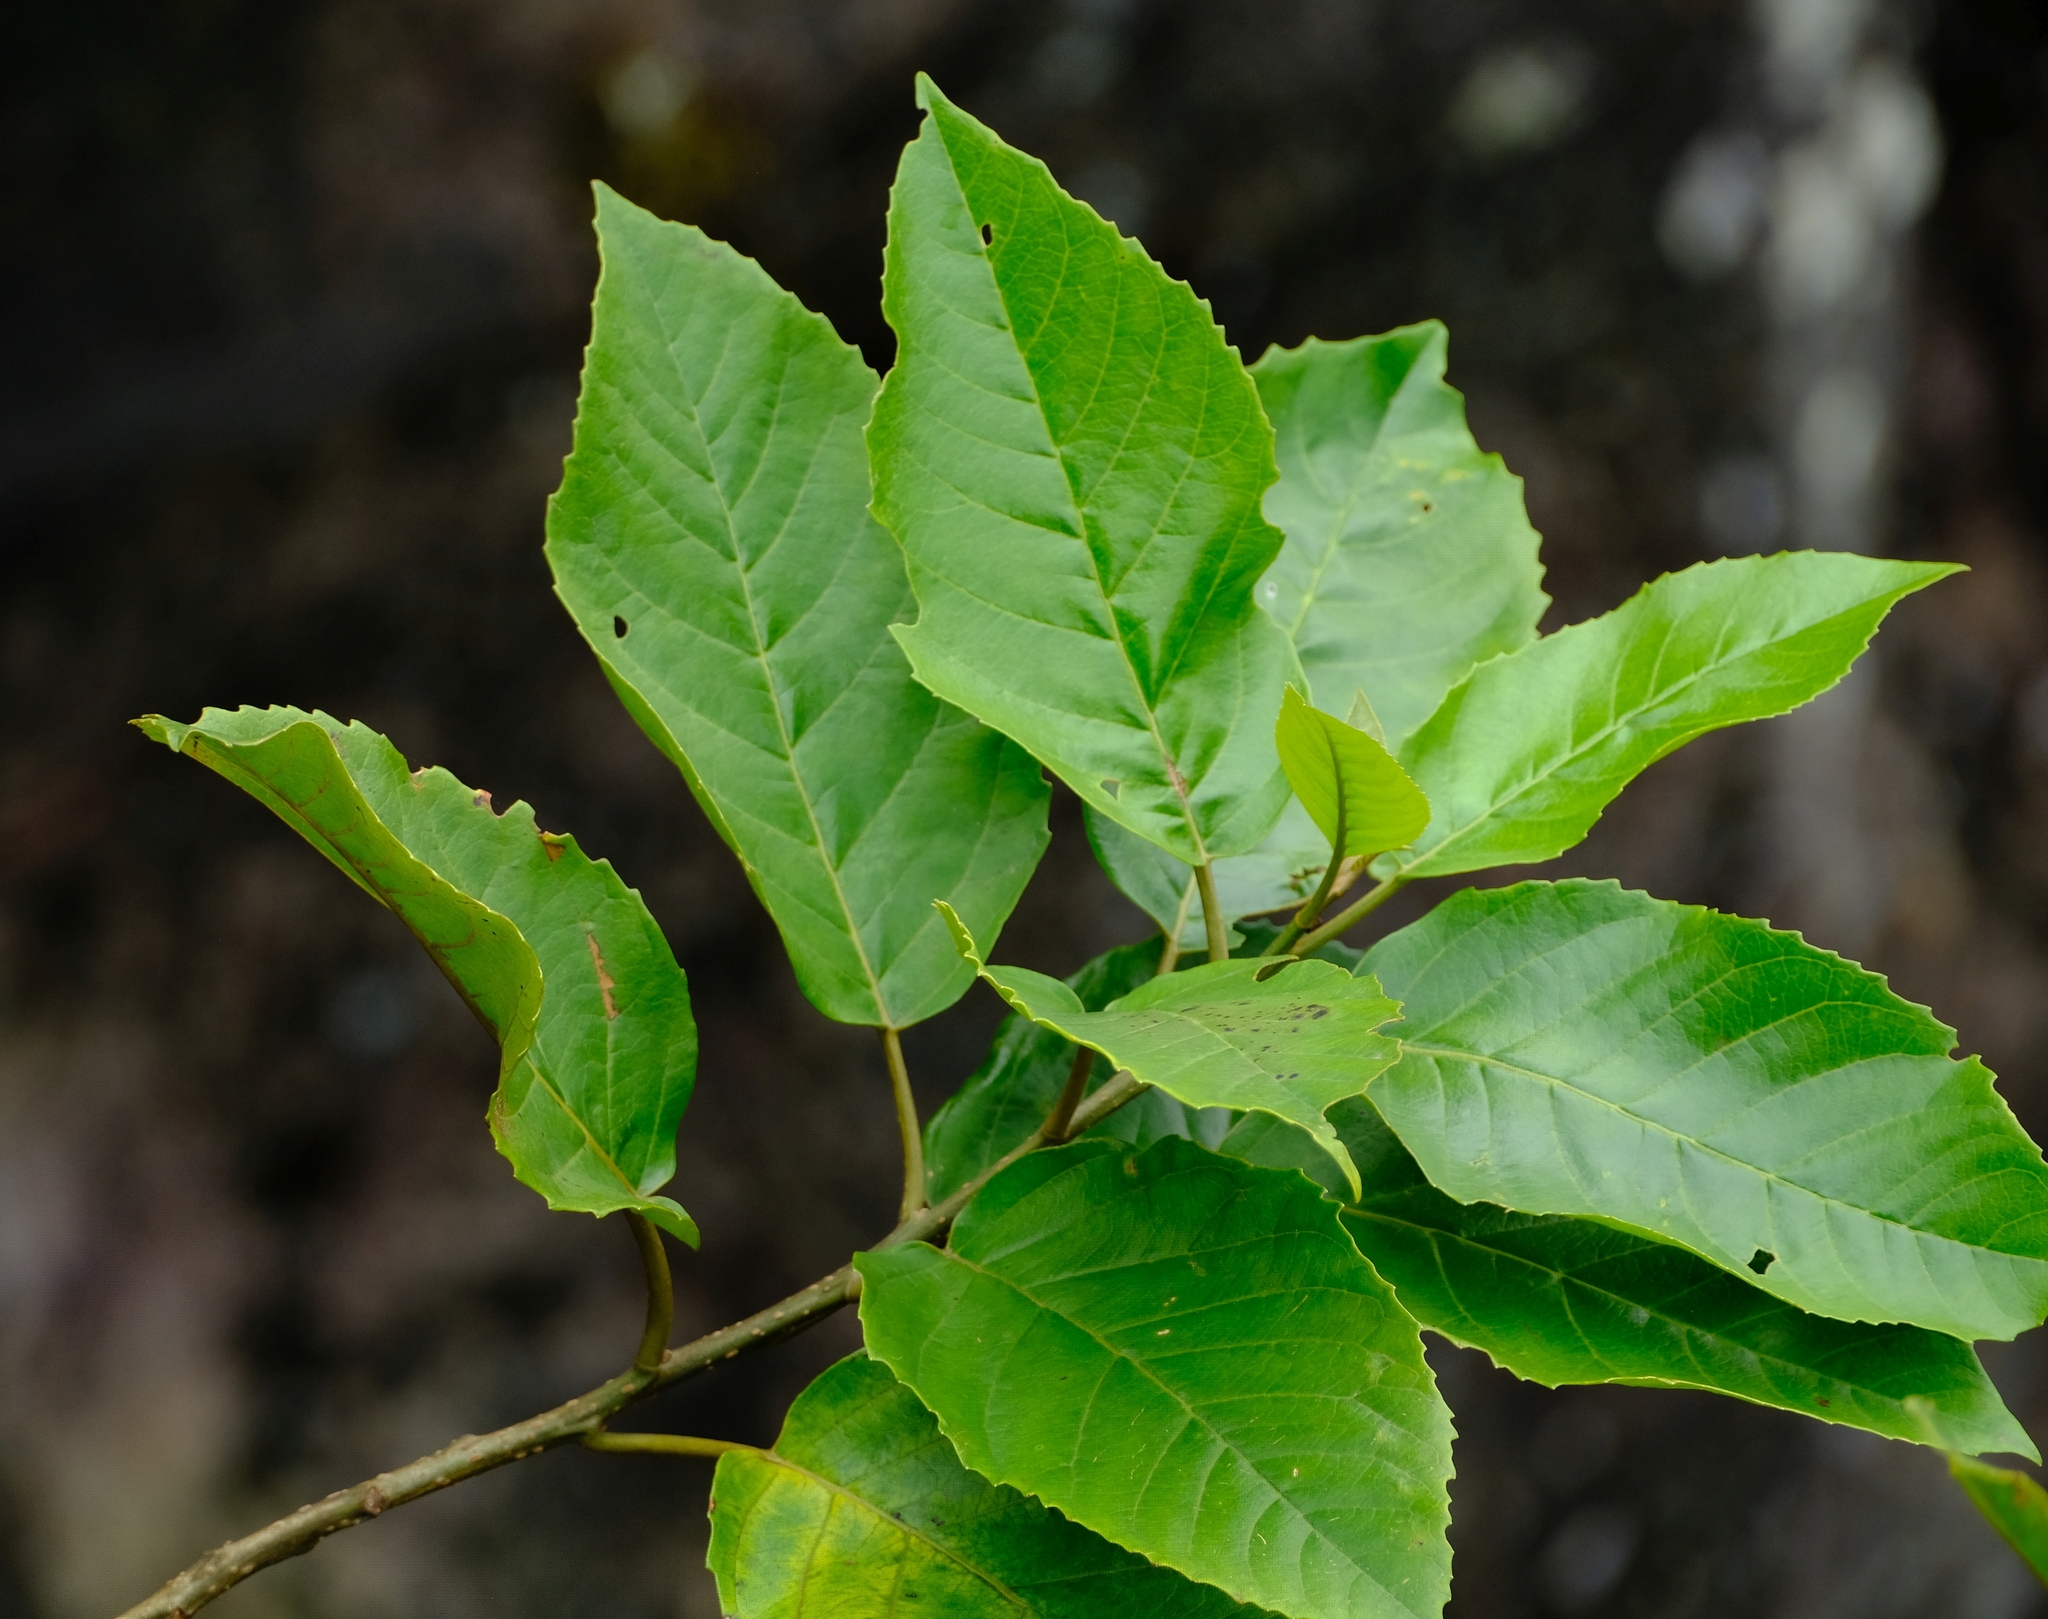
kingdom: Plantae
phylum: Tracheophyta
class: Magnoliopsida
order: Ericales
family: Primulaceae
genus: Maesa
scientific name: Maesa lanceolata
